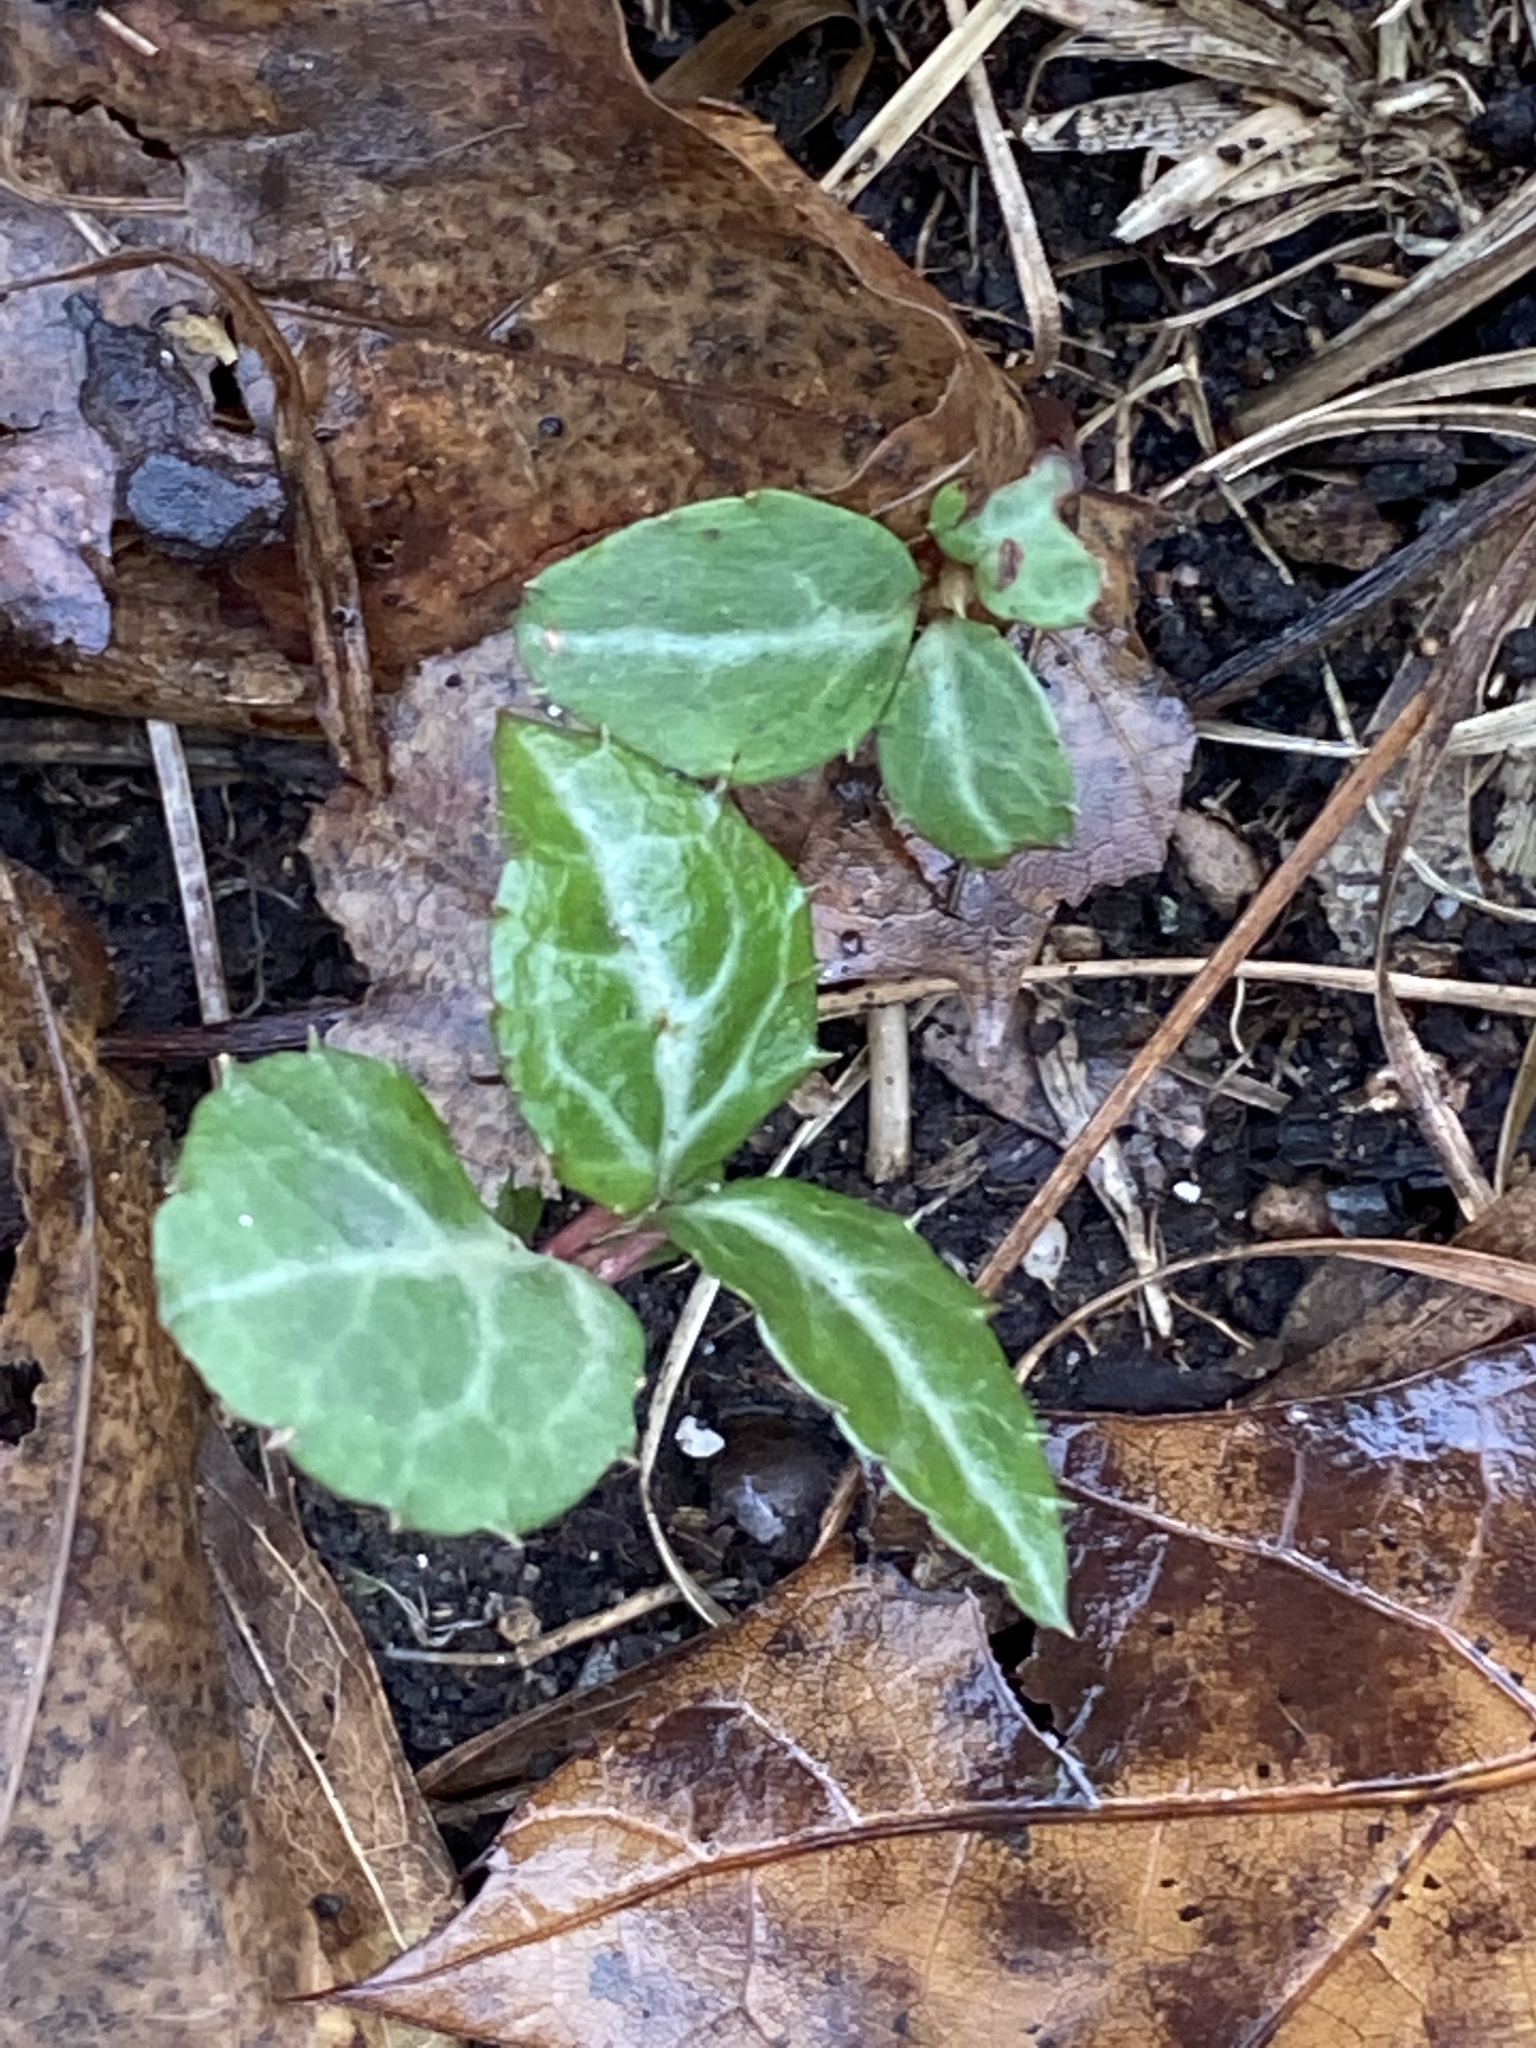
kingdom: Plantae
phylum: Tracheophyta
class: Magnoliopsida
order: Ericales
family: Ericaceae
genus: Chimaphila
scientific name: Chimaphila maculata
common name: Spotted pipsissewa
